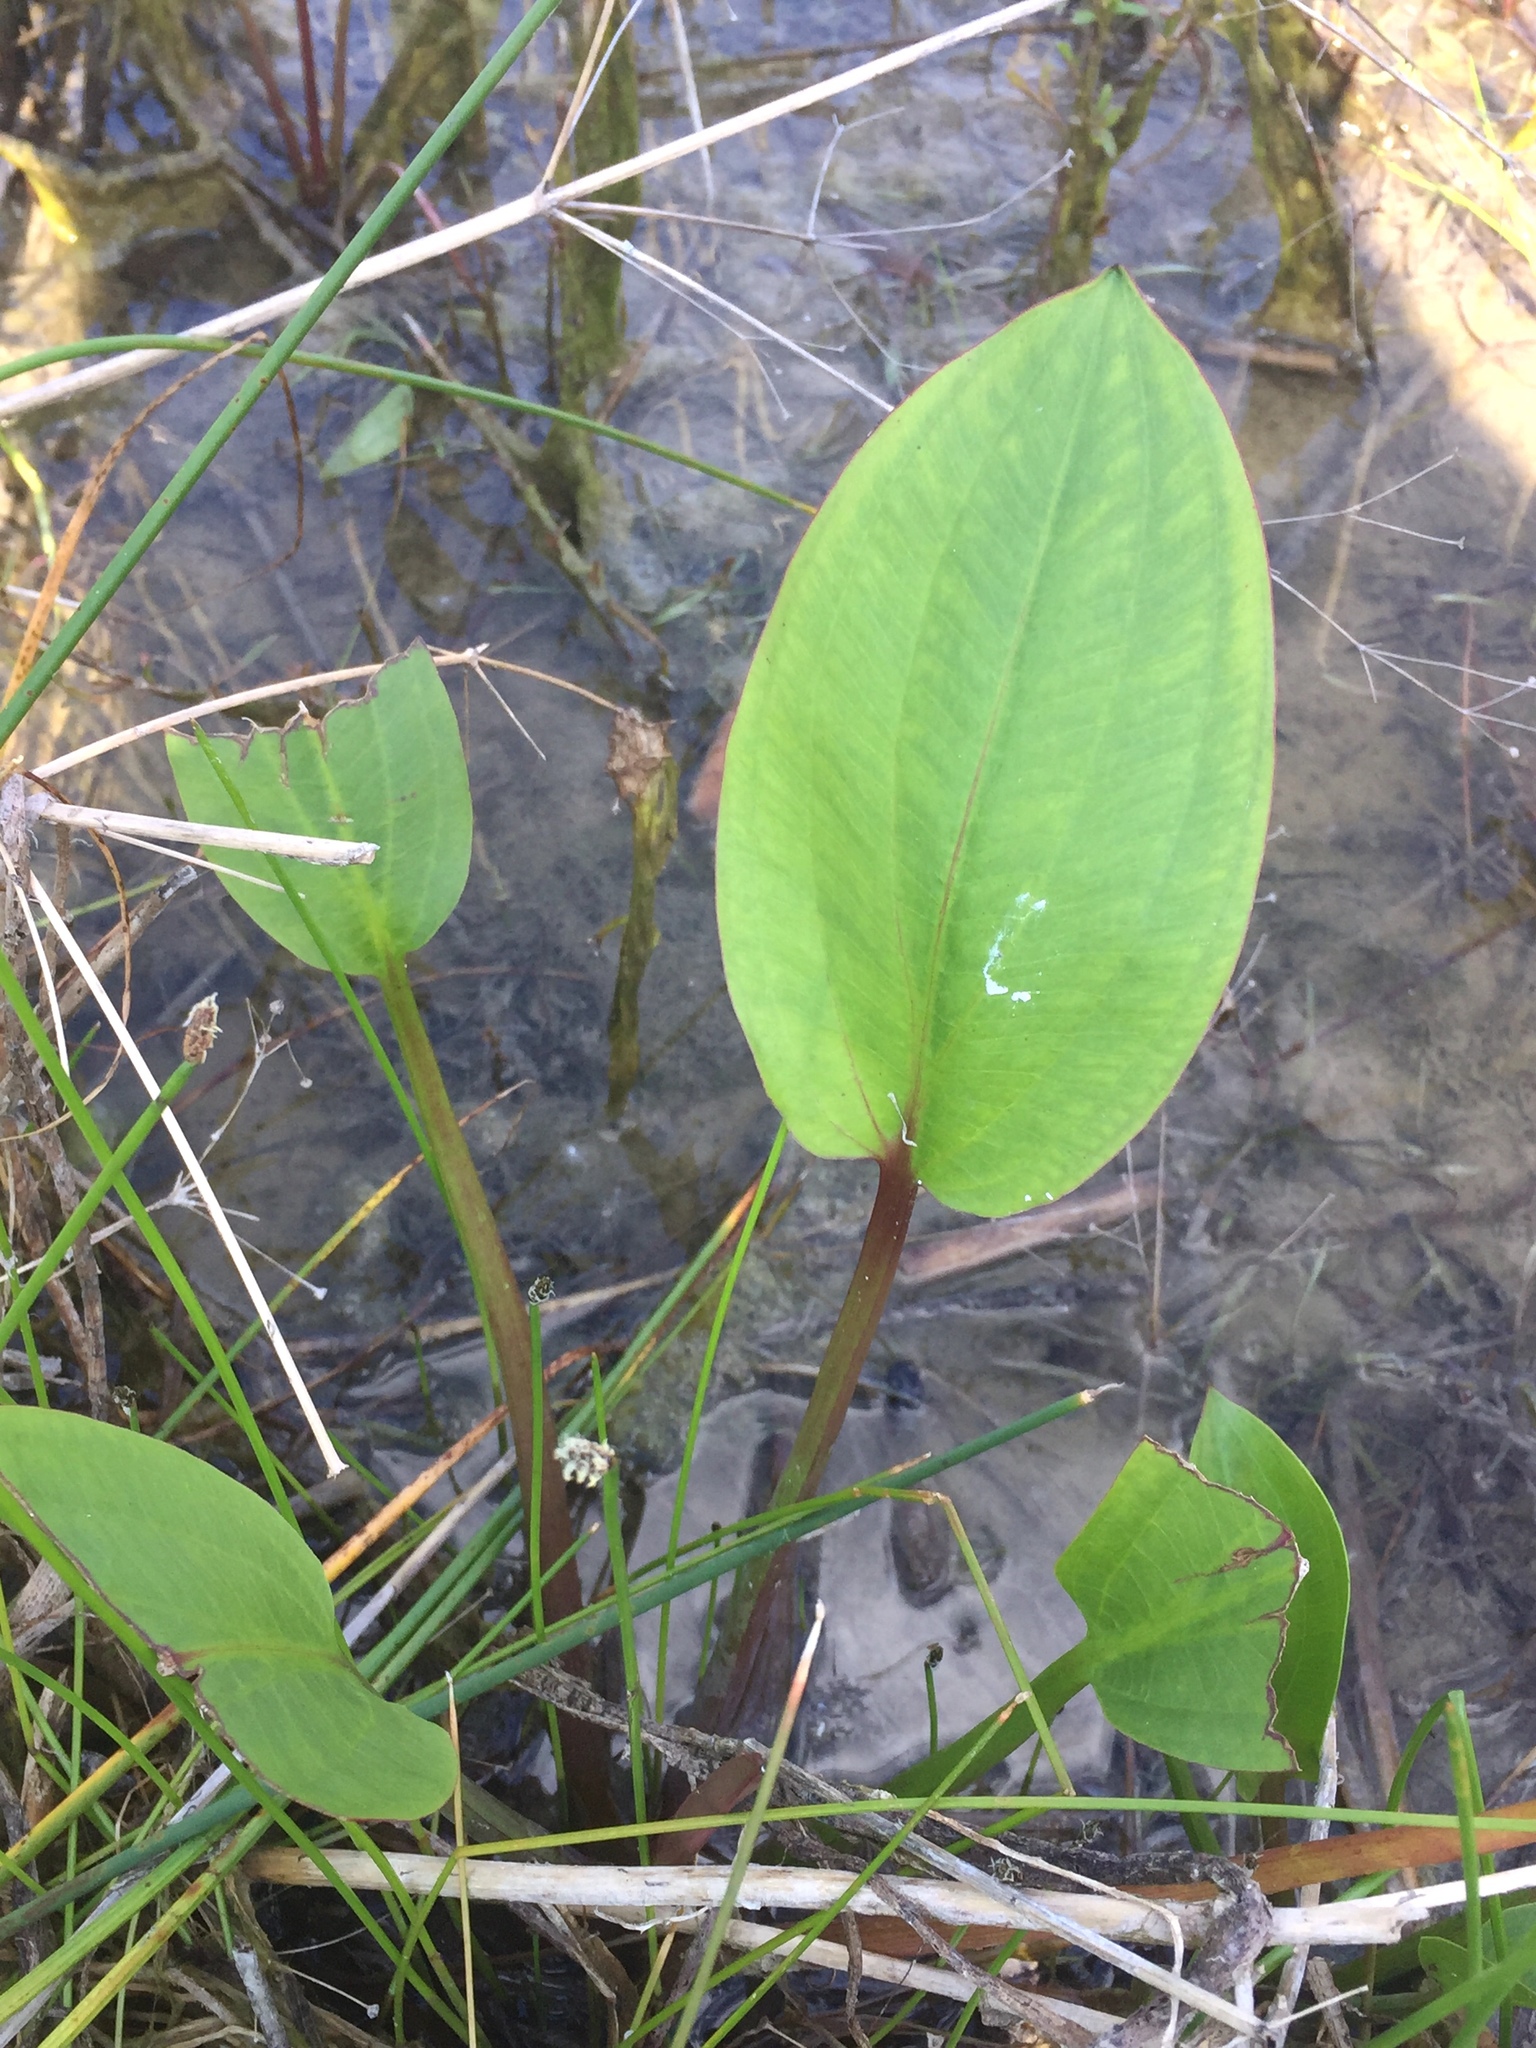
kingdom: Plantae
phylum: Tracheophyta
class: Liliopsida
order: Alismatales
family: Alismataceae
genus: Alisma
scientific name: Alisma triviale
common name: Northern water-plantain
